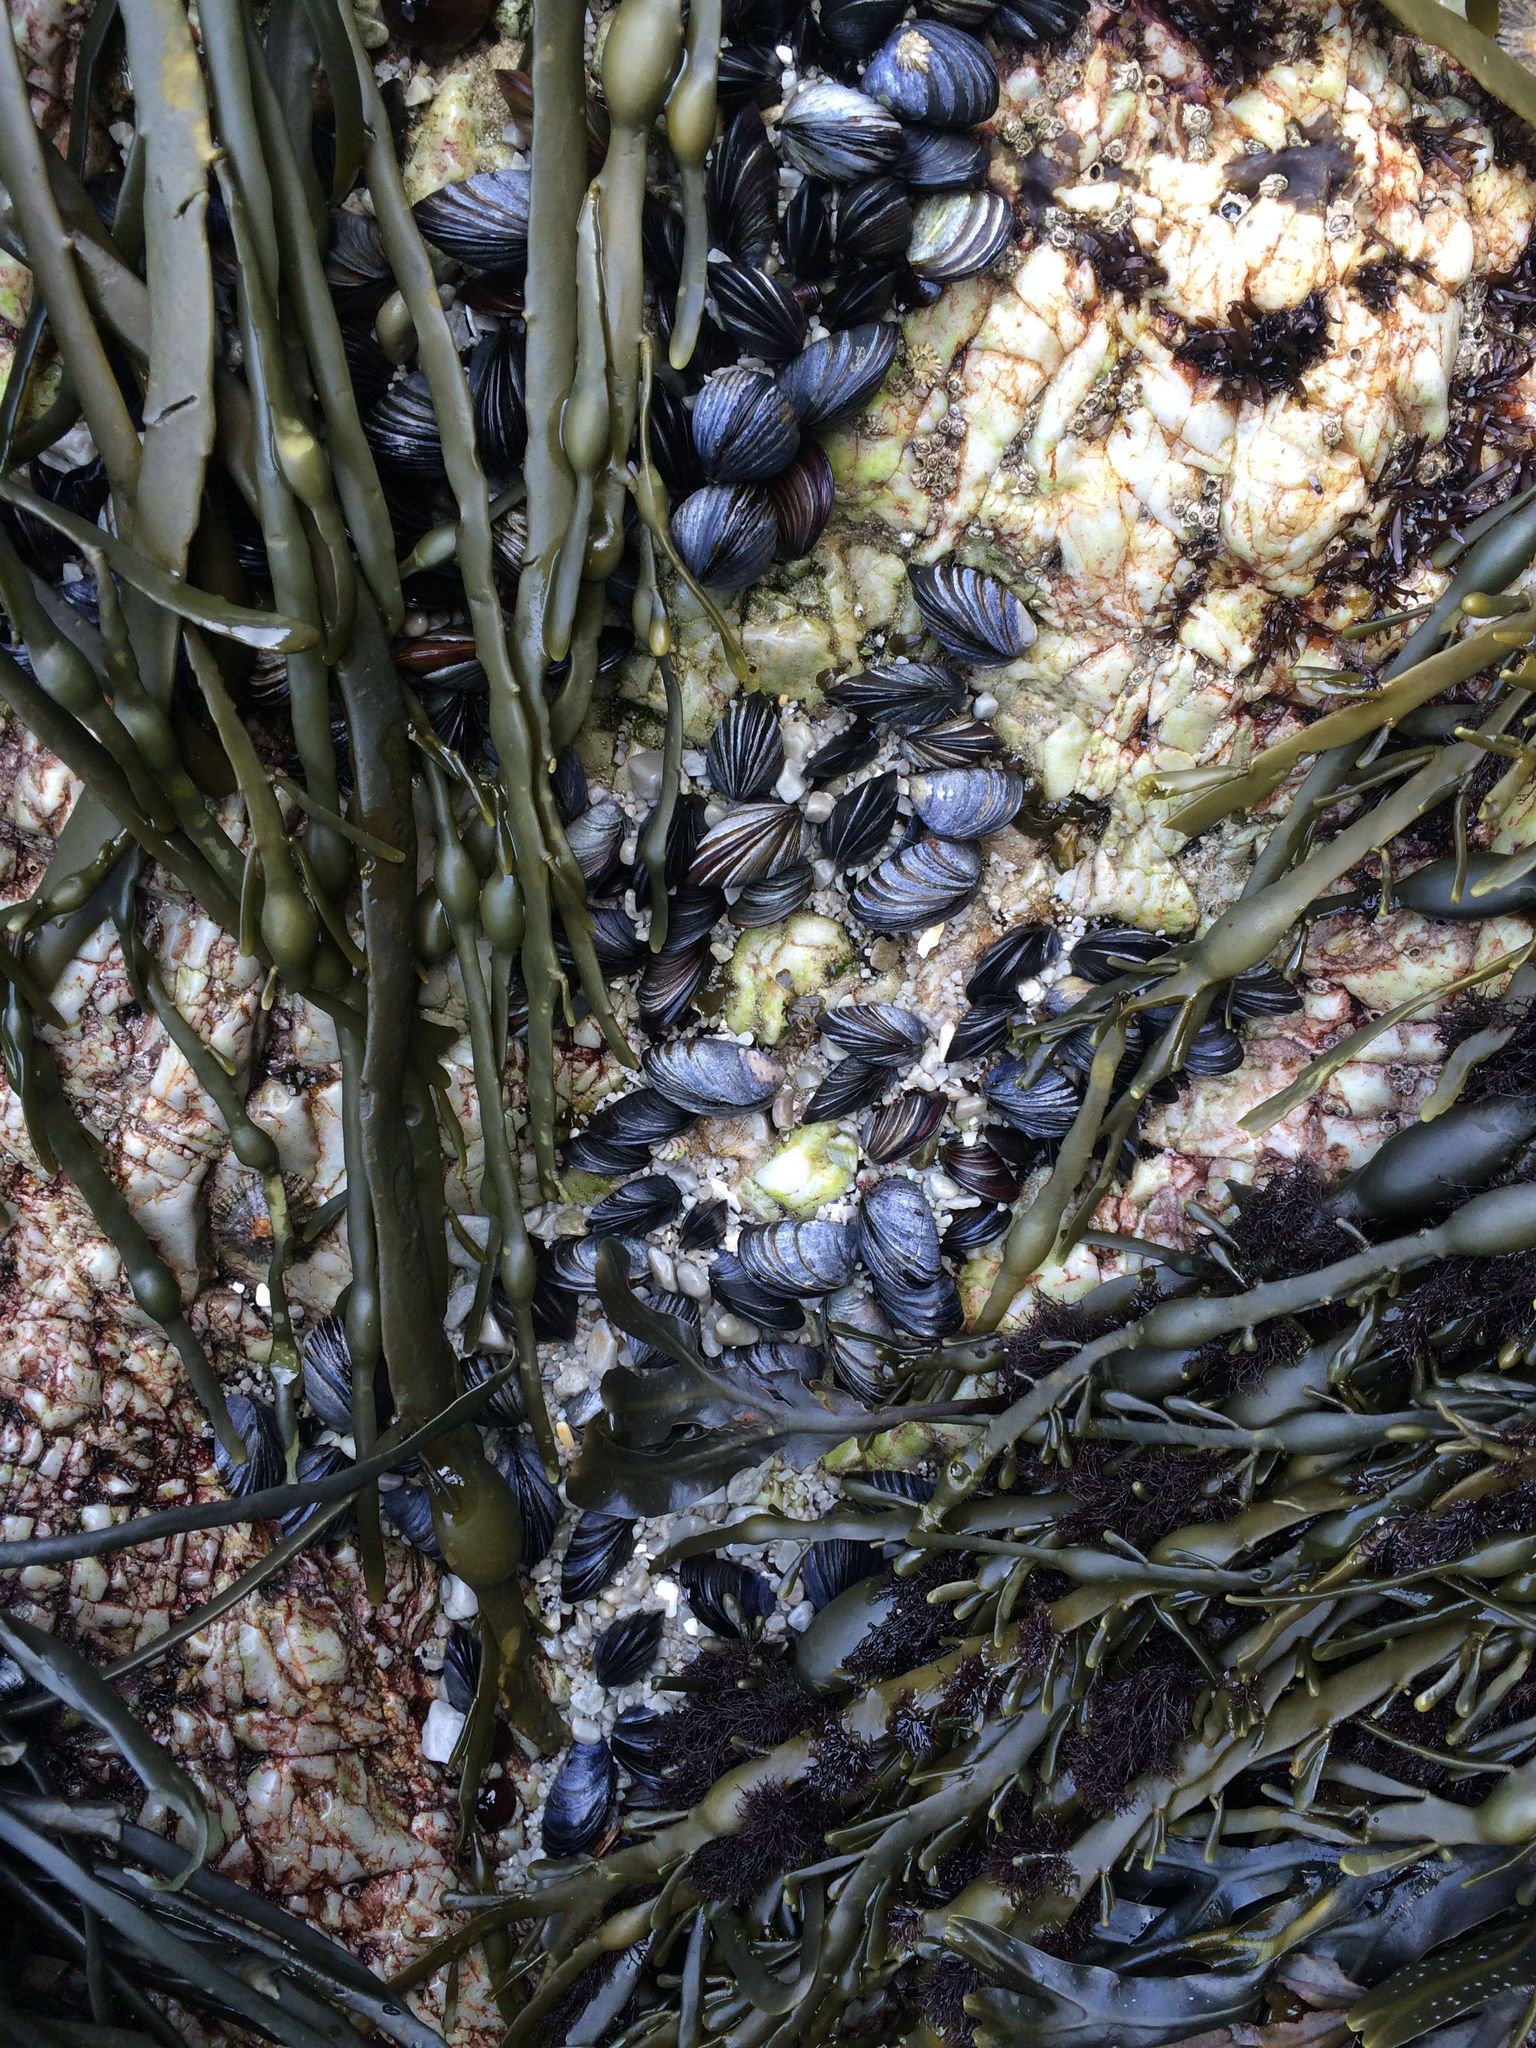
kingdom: Animalia
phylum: Mollusca
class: Bivalvia
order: Mytilida
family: Mytilidae
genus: Mytilus
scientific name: Mytilus edulis
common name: Blue mussel
